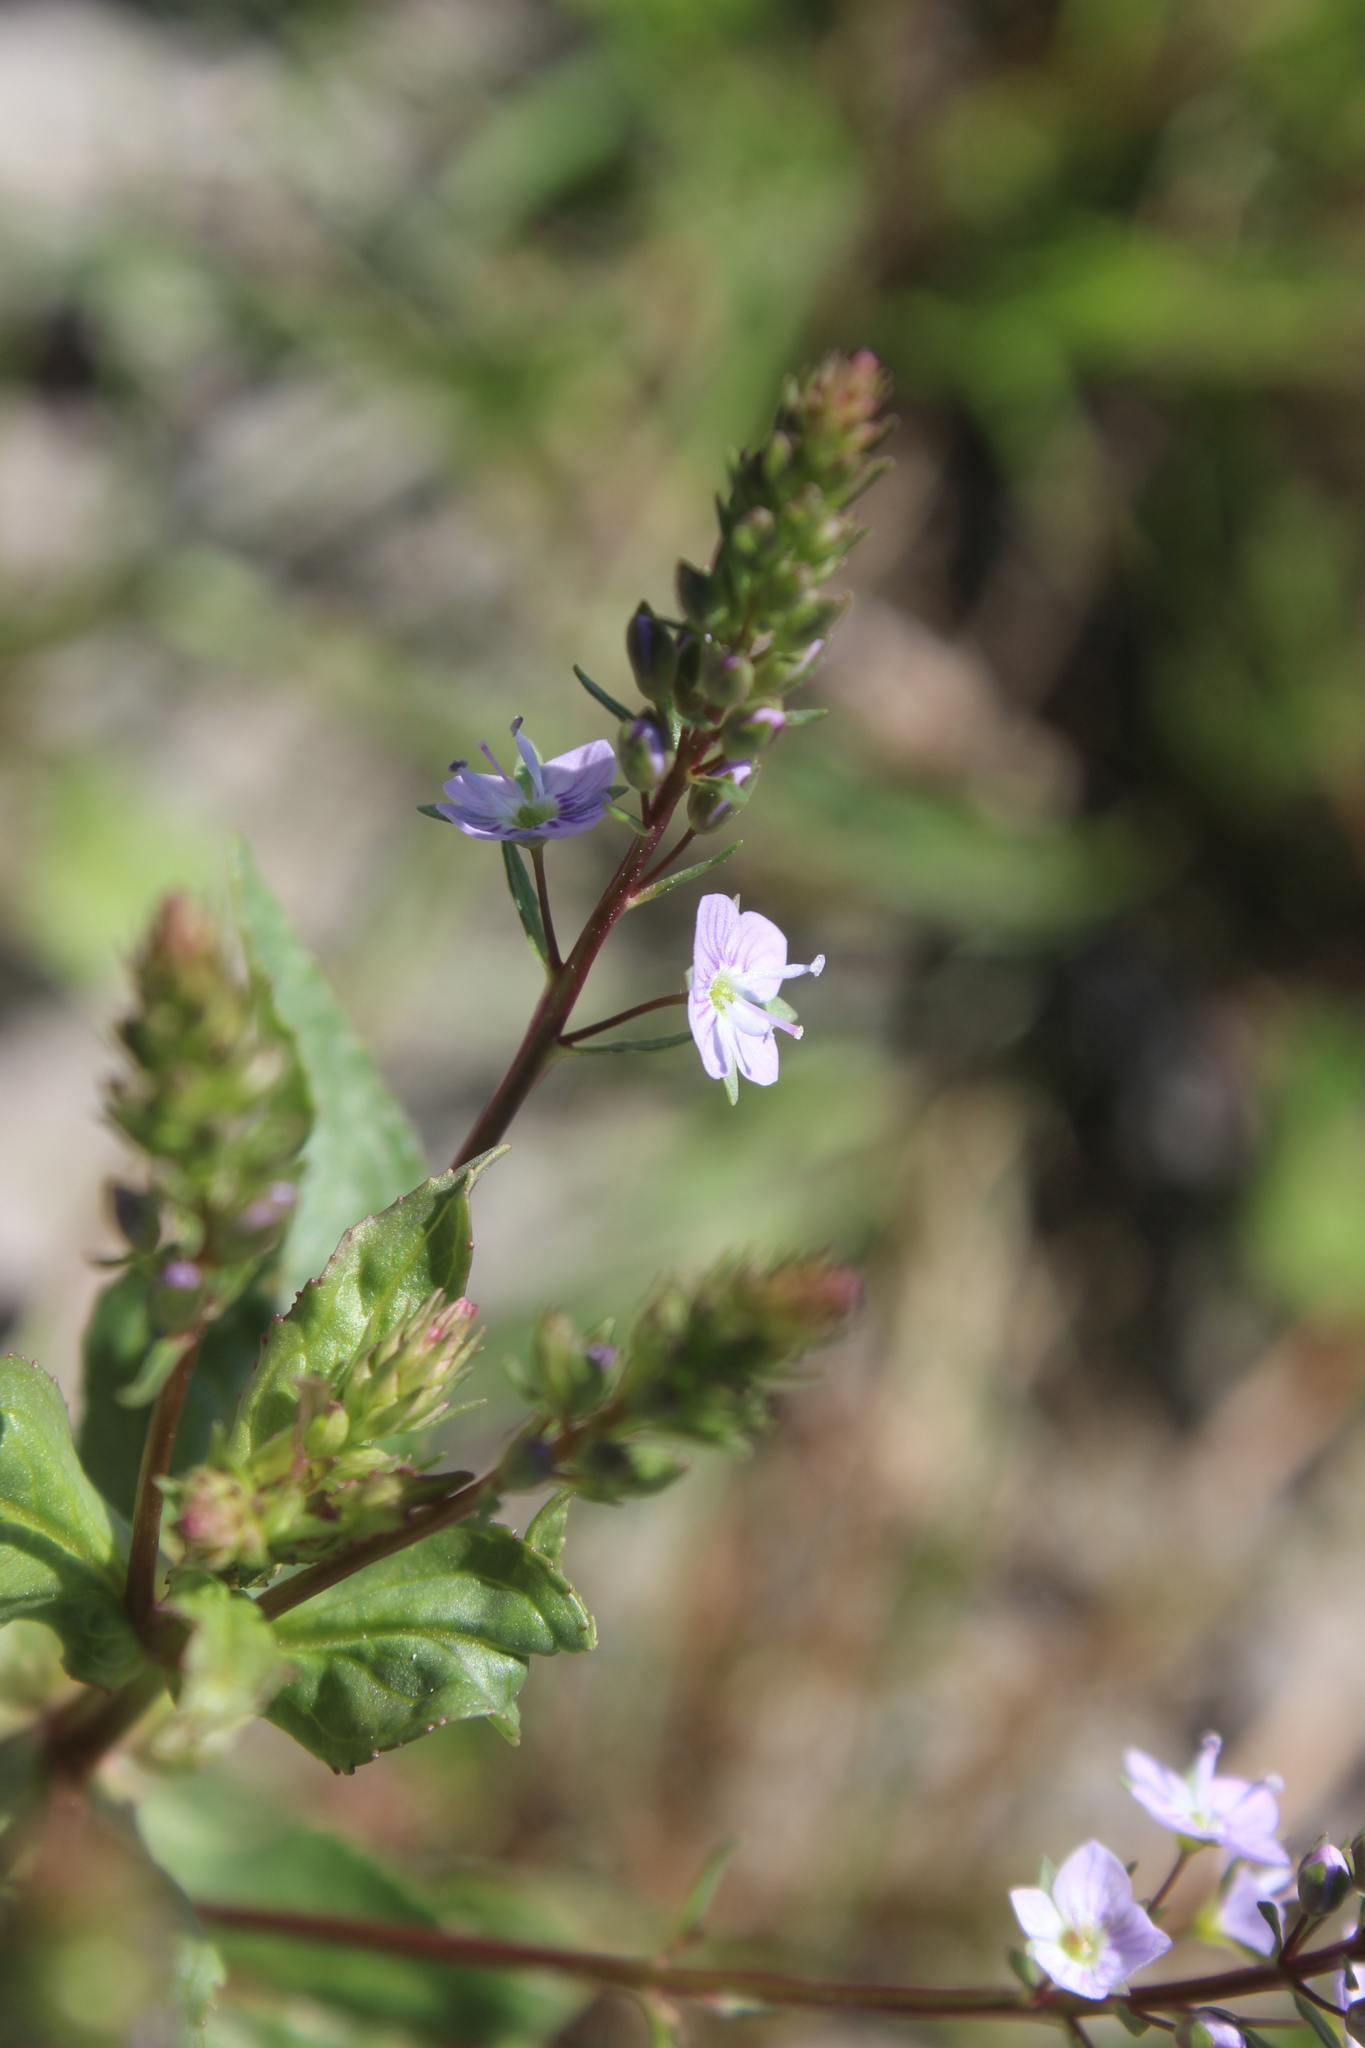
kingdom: Plantae
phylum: Tracheophyta
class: Magnoliopsida
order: Lamiales
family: Plantaginaceae
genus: Veronica
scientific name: Veronica anagallis-aquatica
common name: Water speedwell
